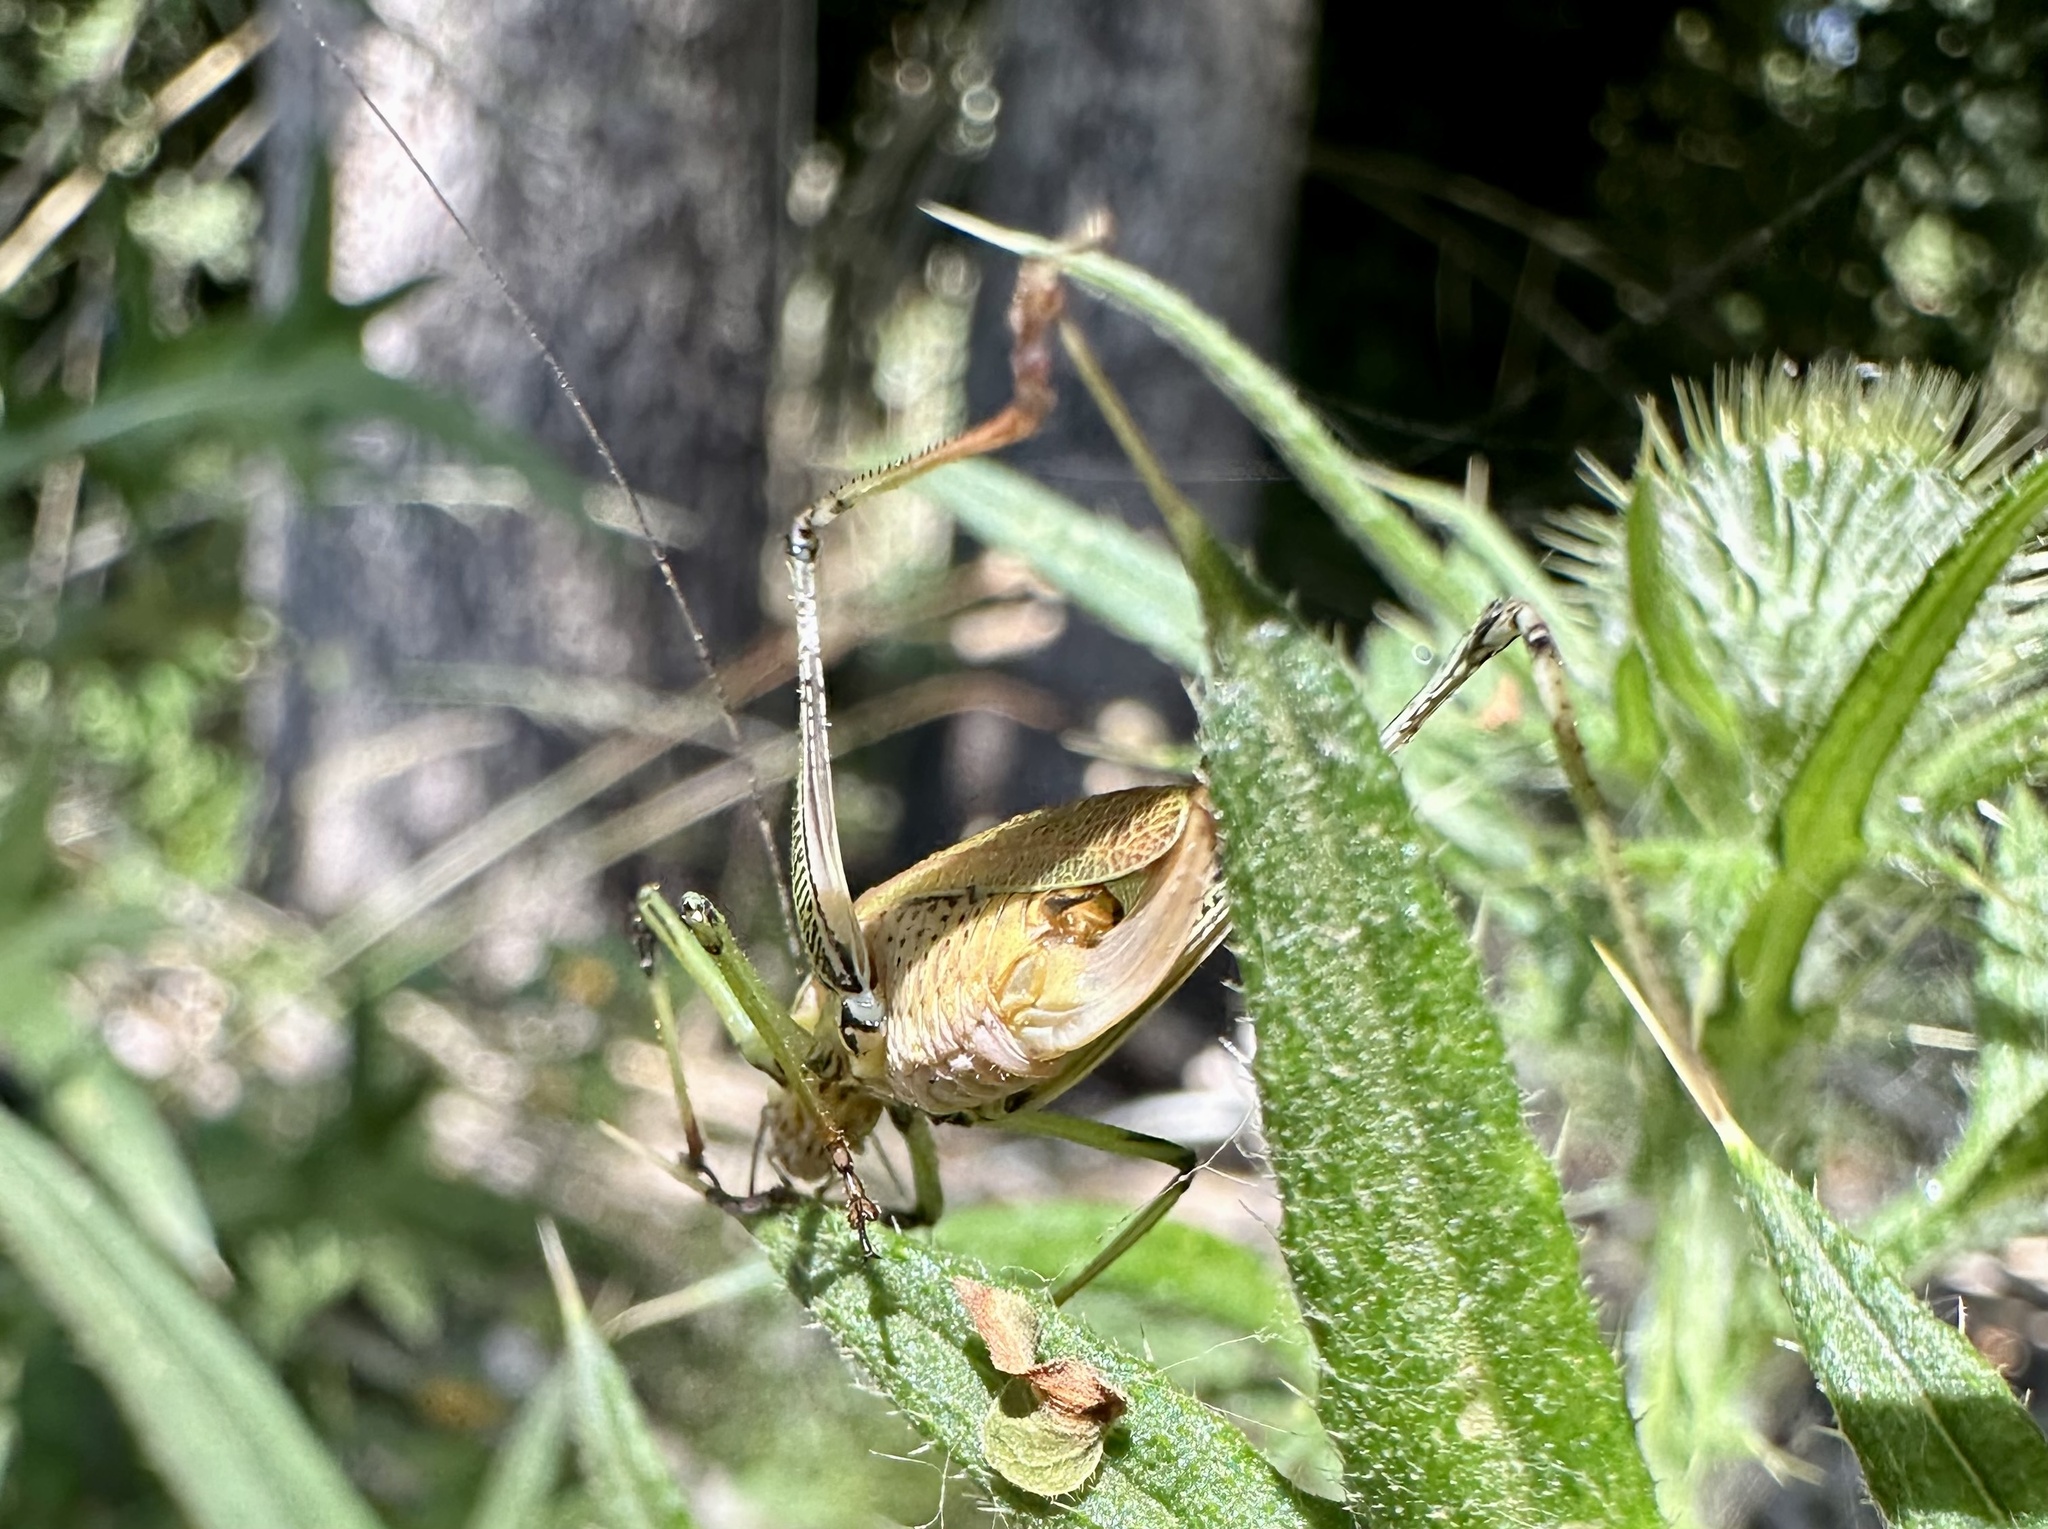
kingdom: Animalia
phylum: Arthropoda
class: Insecta
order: Orthoptera
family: Tettigoniidae
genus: Stenophyllia
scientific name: Stenophyllia modesta
